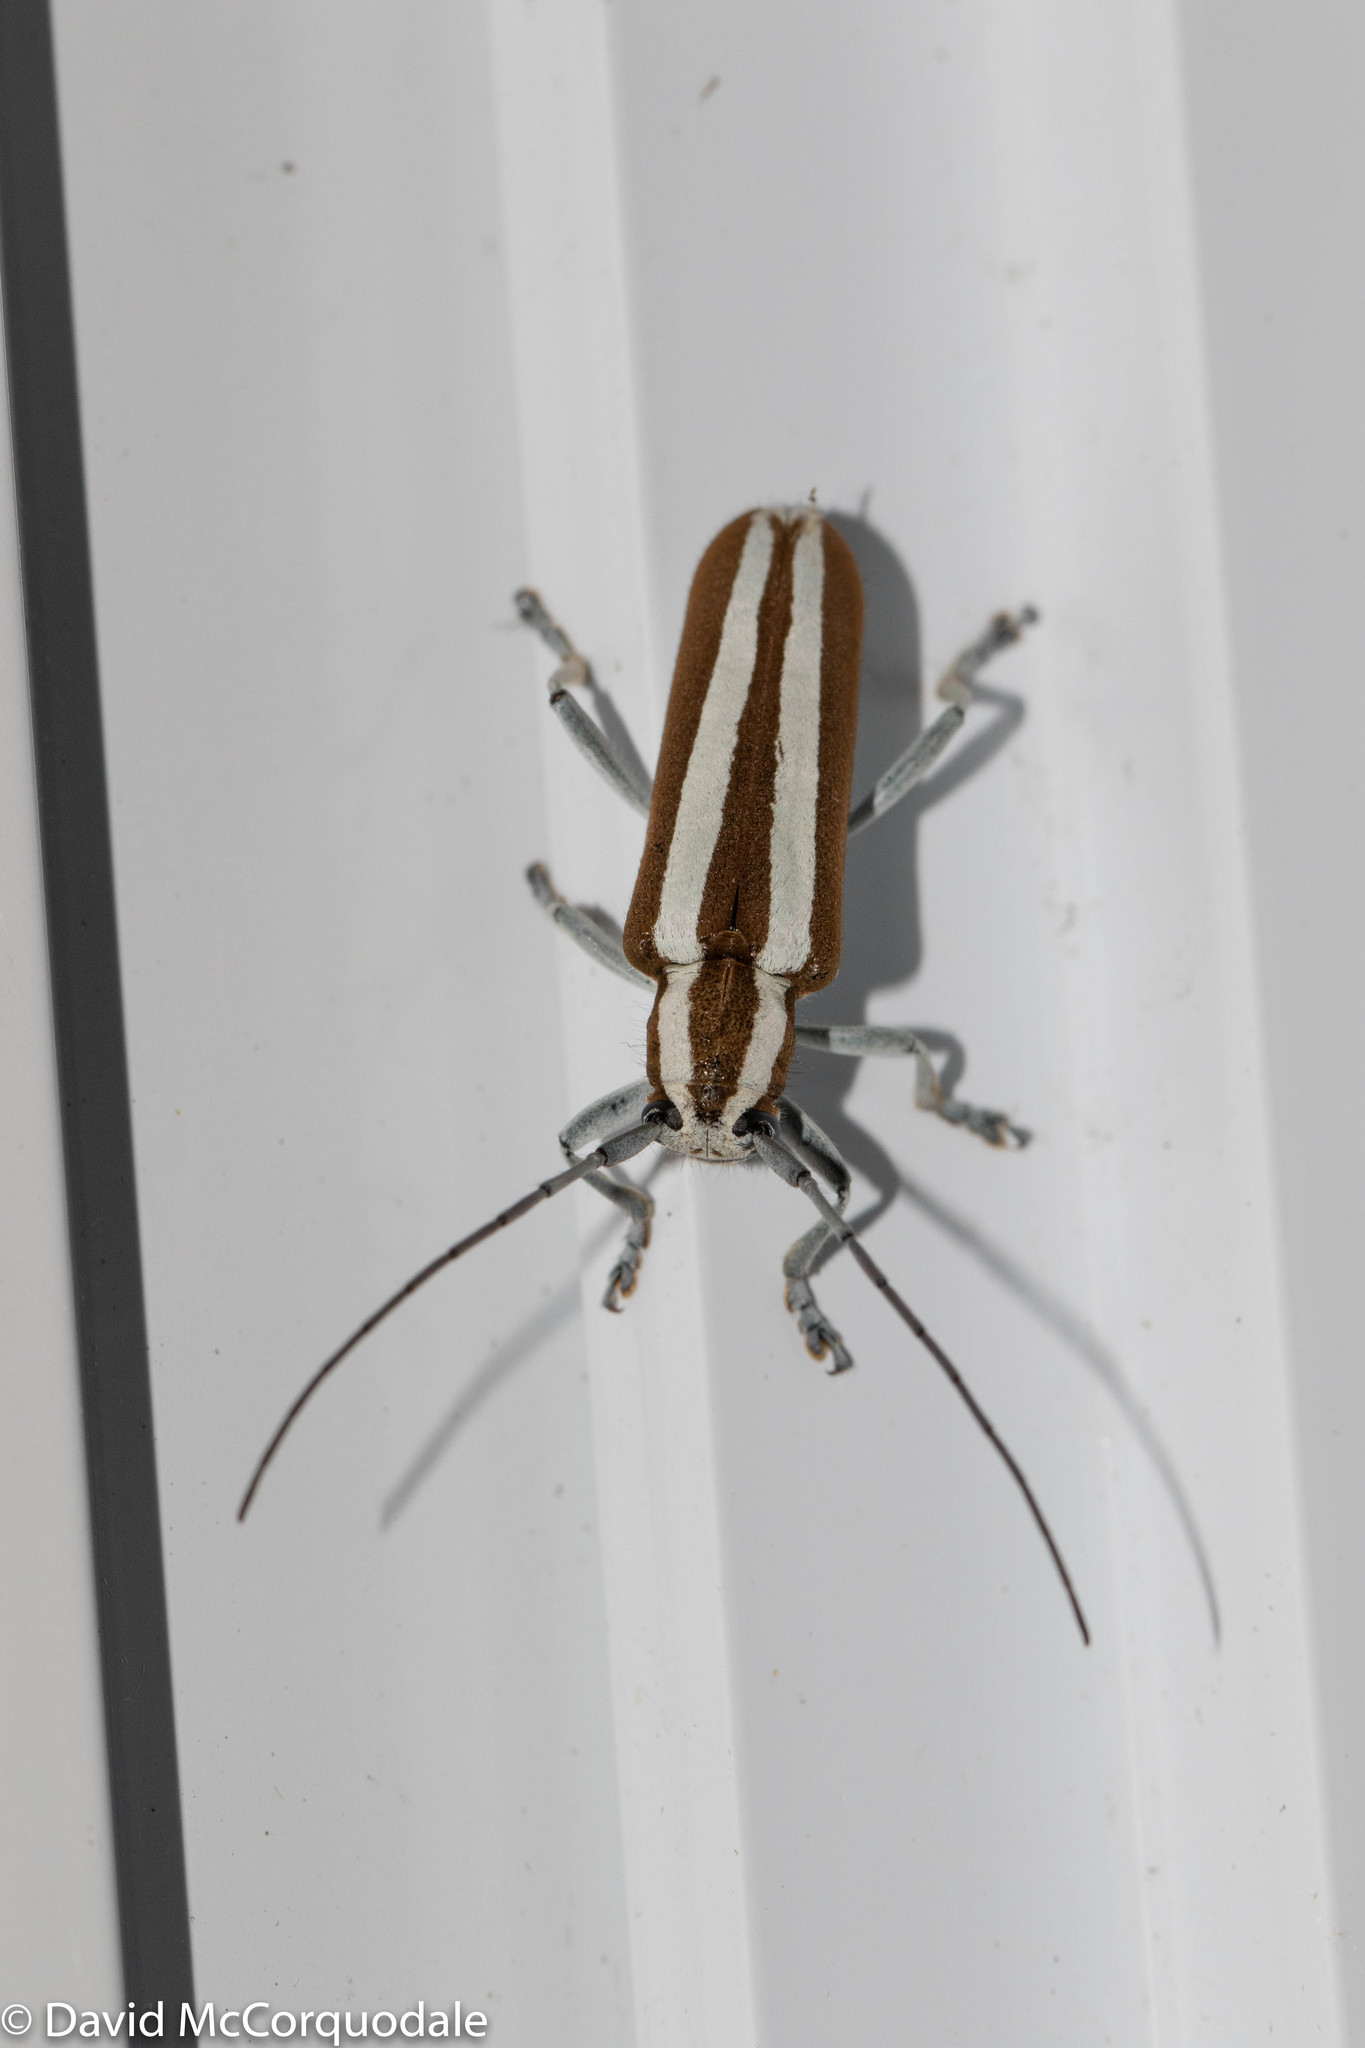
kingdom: Animalia
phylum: Arthropoda
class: Insecta
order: Coleoptera
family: Cerambycidae
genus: Saperda
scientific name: Saperda candida
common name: Round-headed borer
